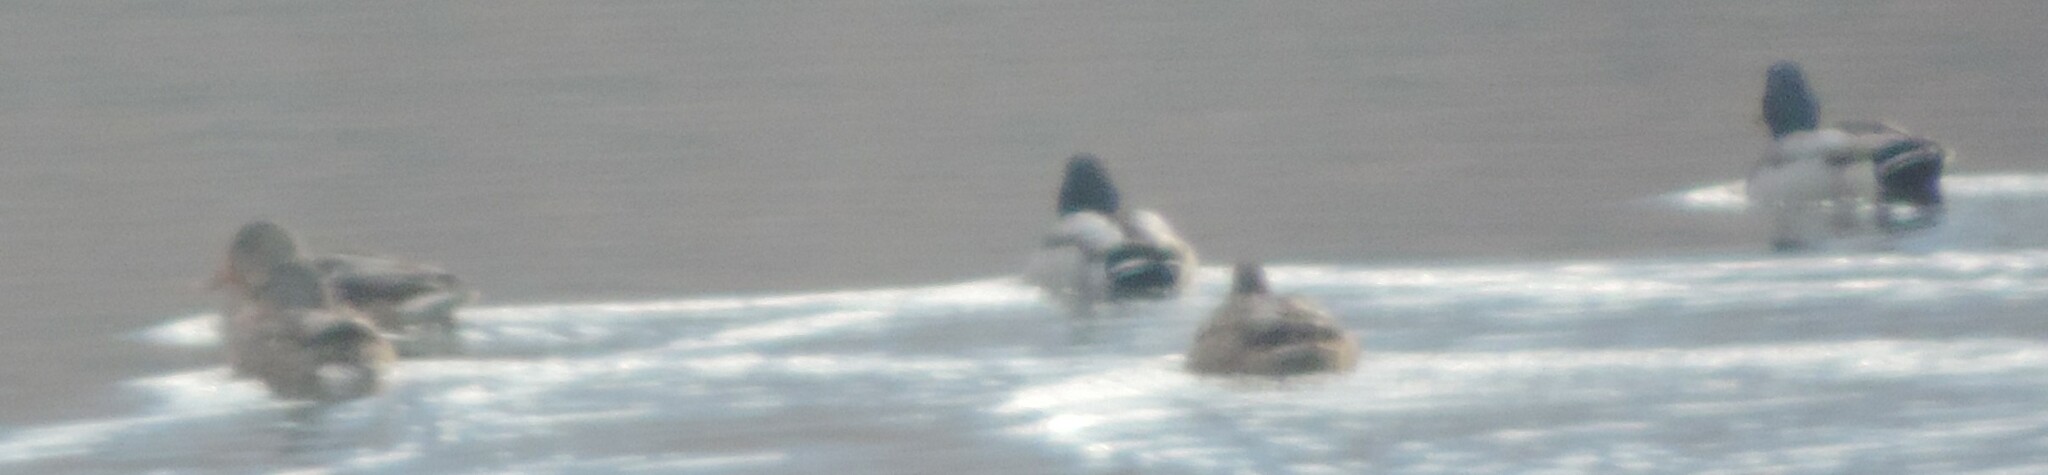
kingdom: Animalia
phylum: Chordata
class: Aves
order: Anseriformes
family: Anatidae
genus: Anas
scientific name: Anas platyrhynchos
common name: Mallard
